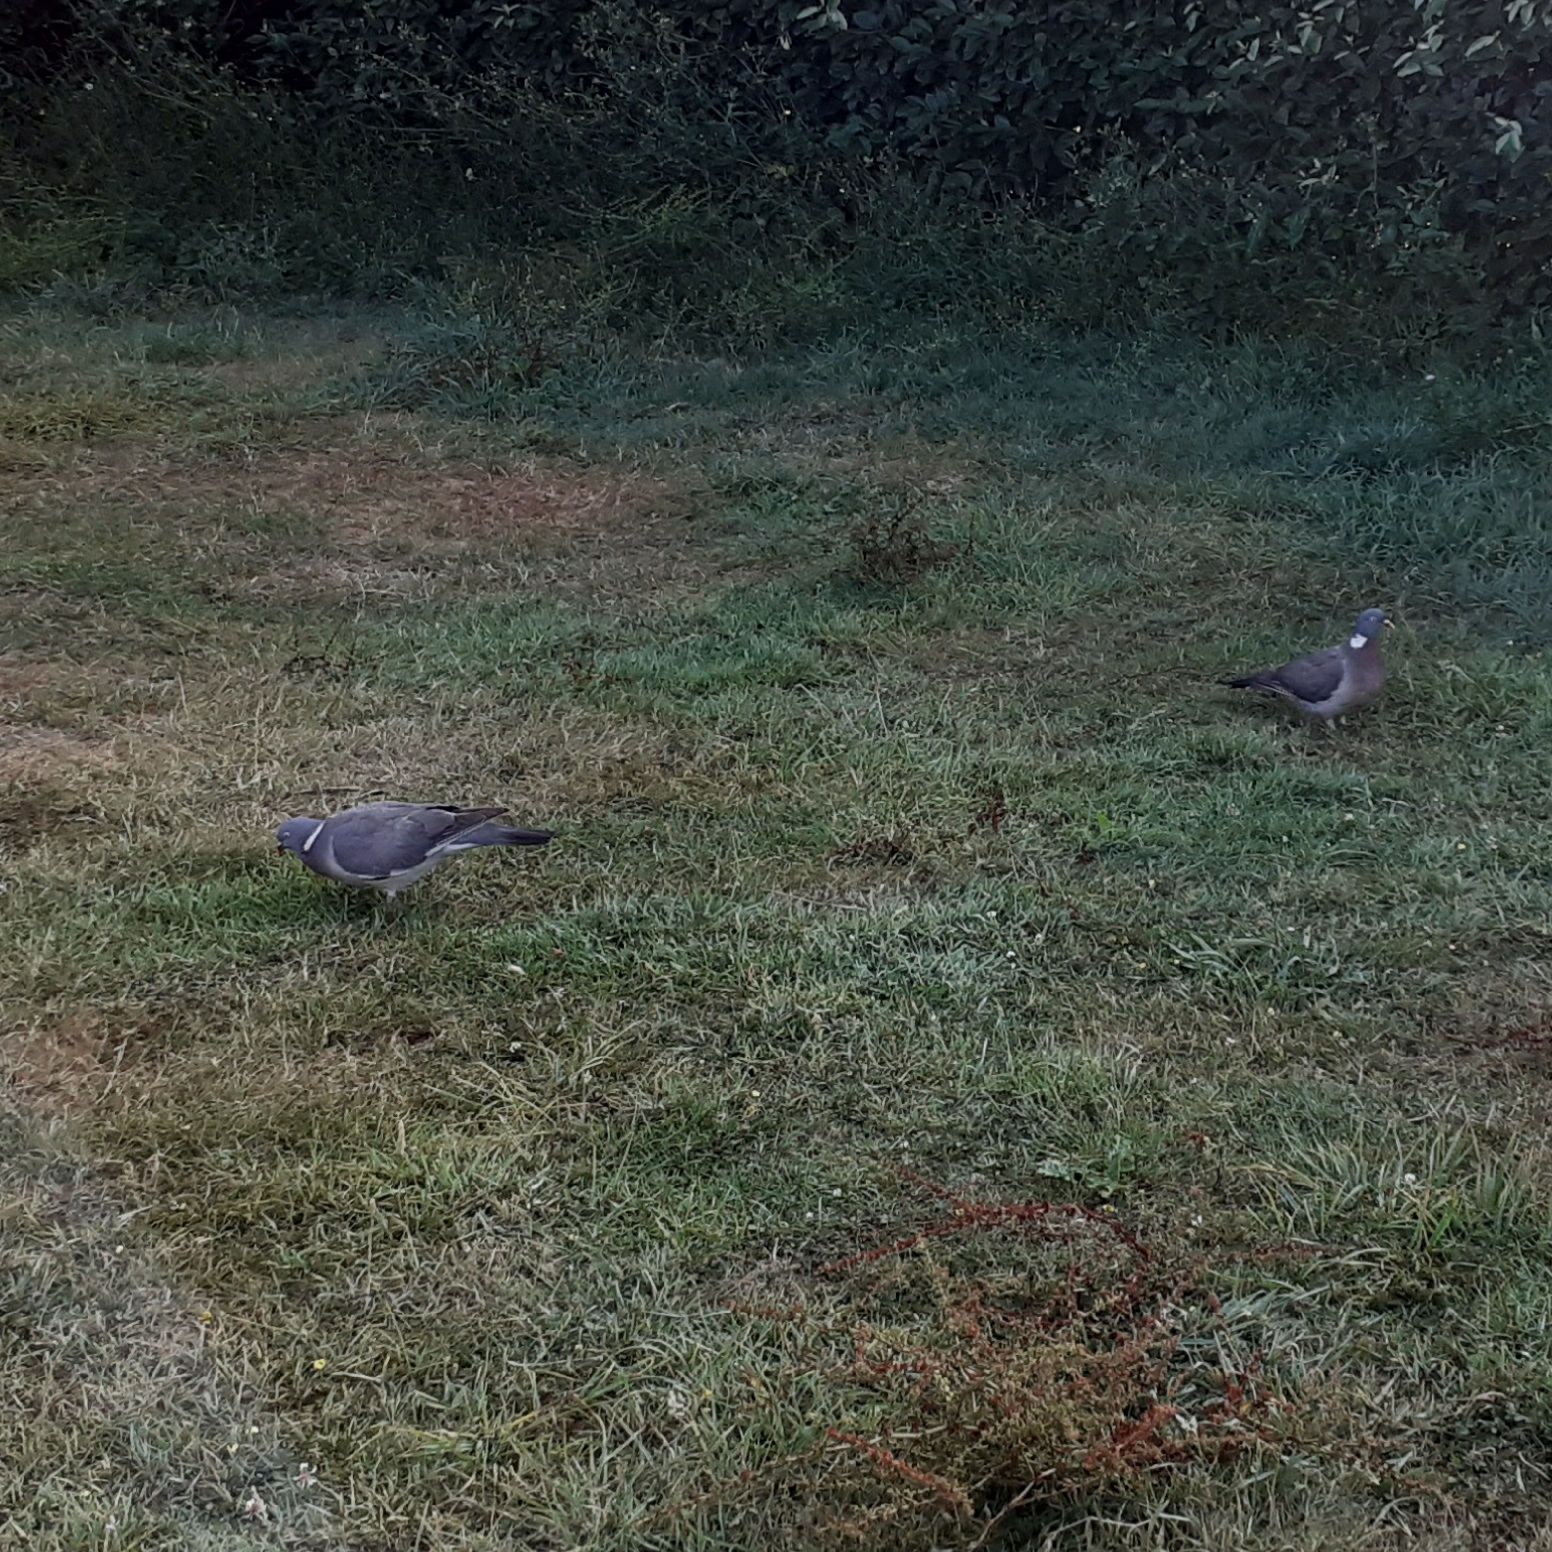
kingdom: Animalia
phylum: Chordata
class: Aves
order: Columbiformes
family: Columbidae
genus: Columba
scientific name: Columba palumbus
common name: Common wood pigeon
